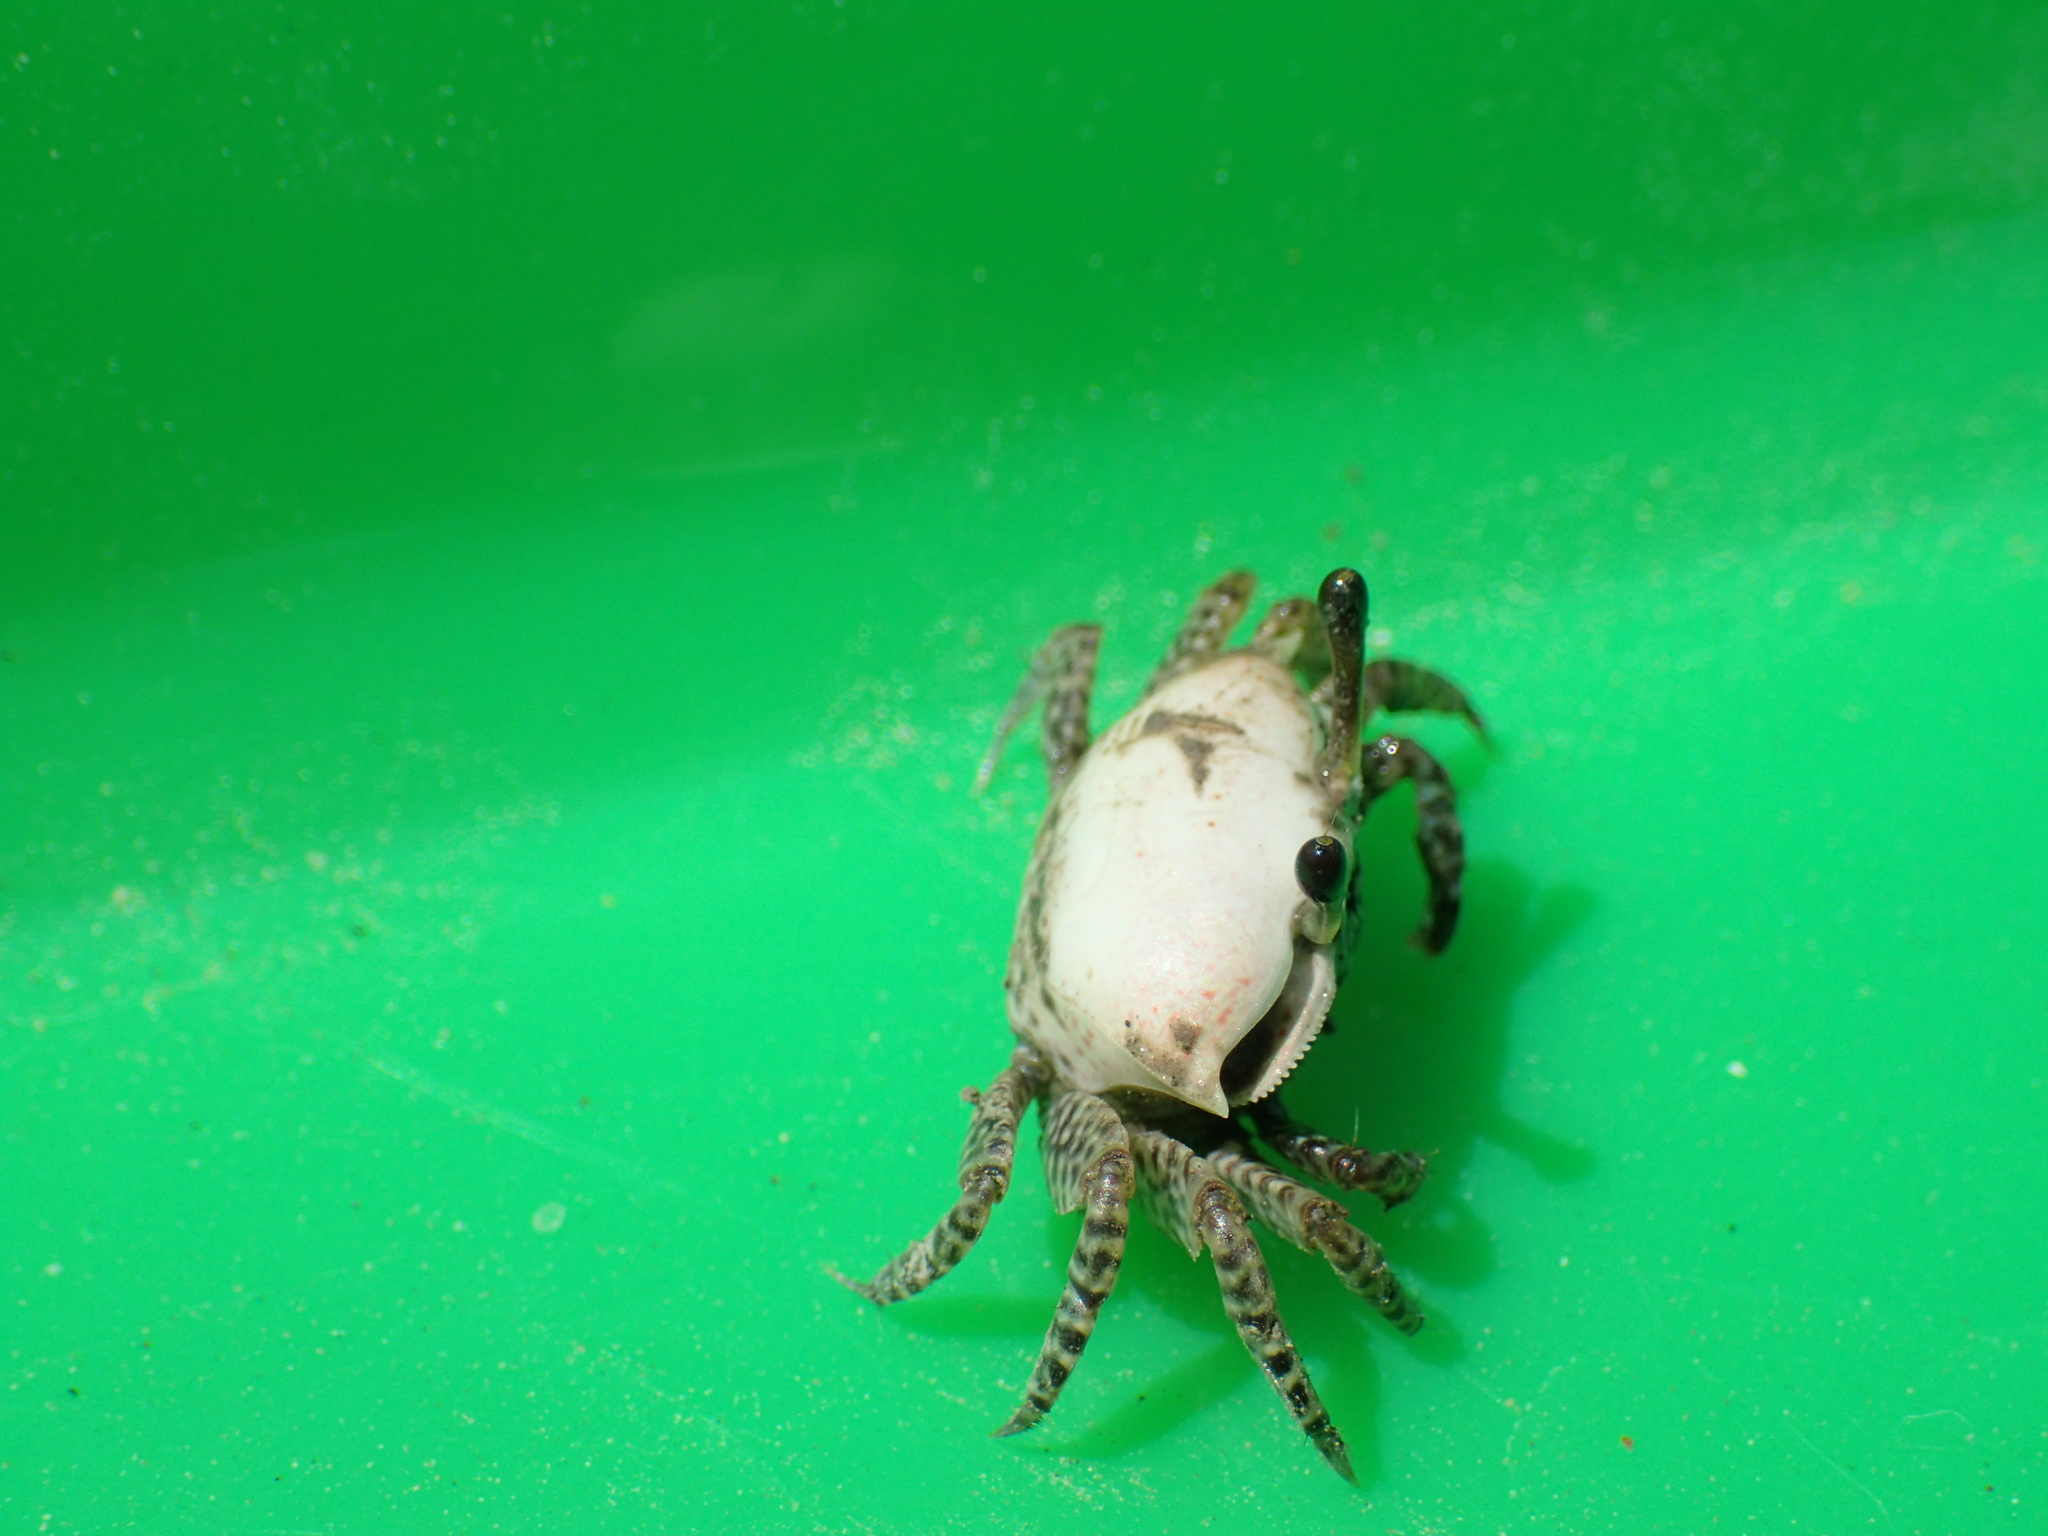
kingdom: Animalia
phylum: Arthropoda
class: Malacostraca
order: Decapoda
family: Ocypodidae
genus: Austruca
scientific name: Austruca triangularis
